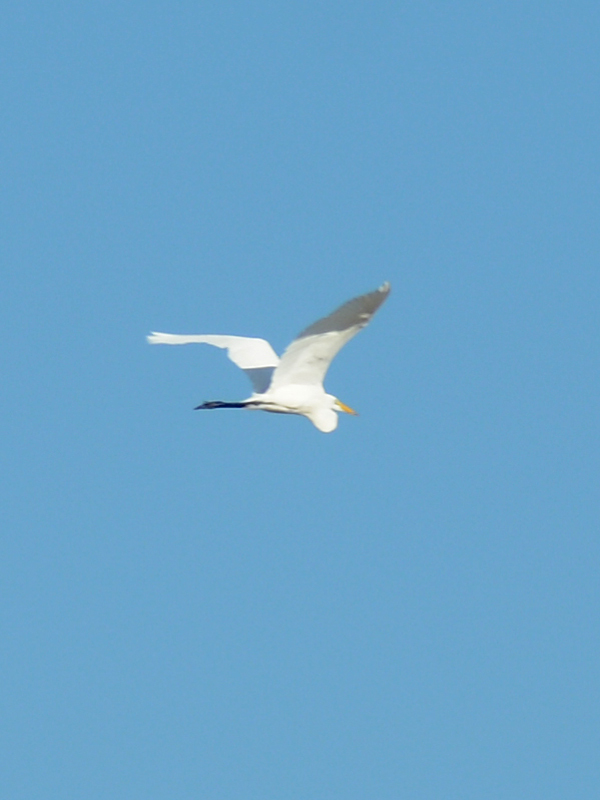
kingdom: Animalia
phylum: Chordata
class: Aves
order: Pelecaniformes
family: Ardeidae
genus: Ardea
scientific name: Ardea alba
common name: Great egret
